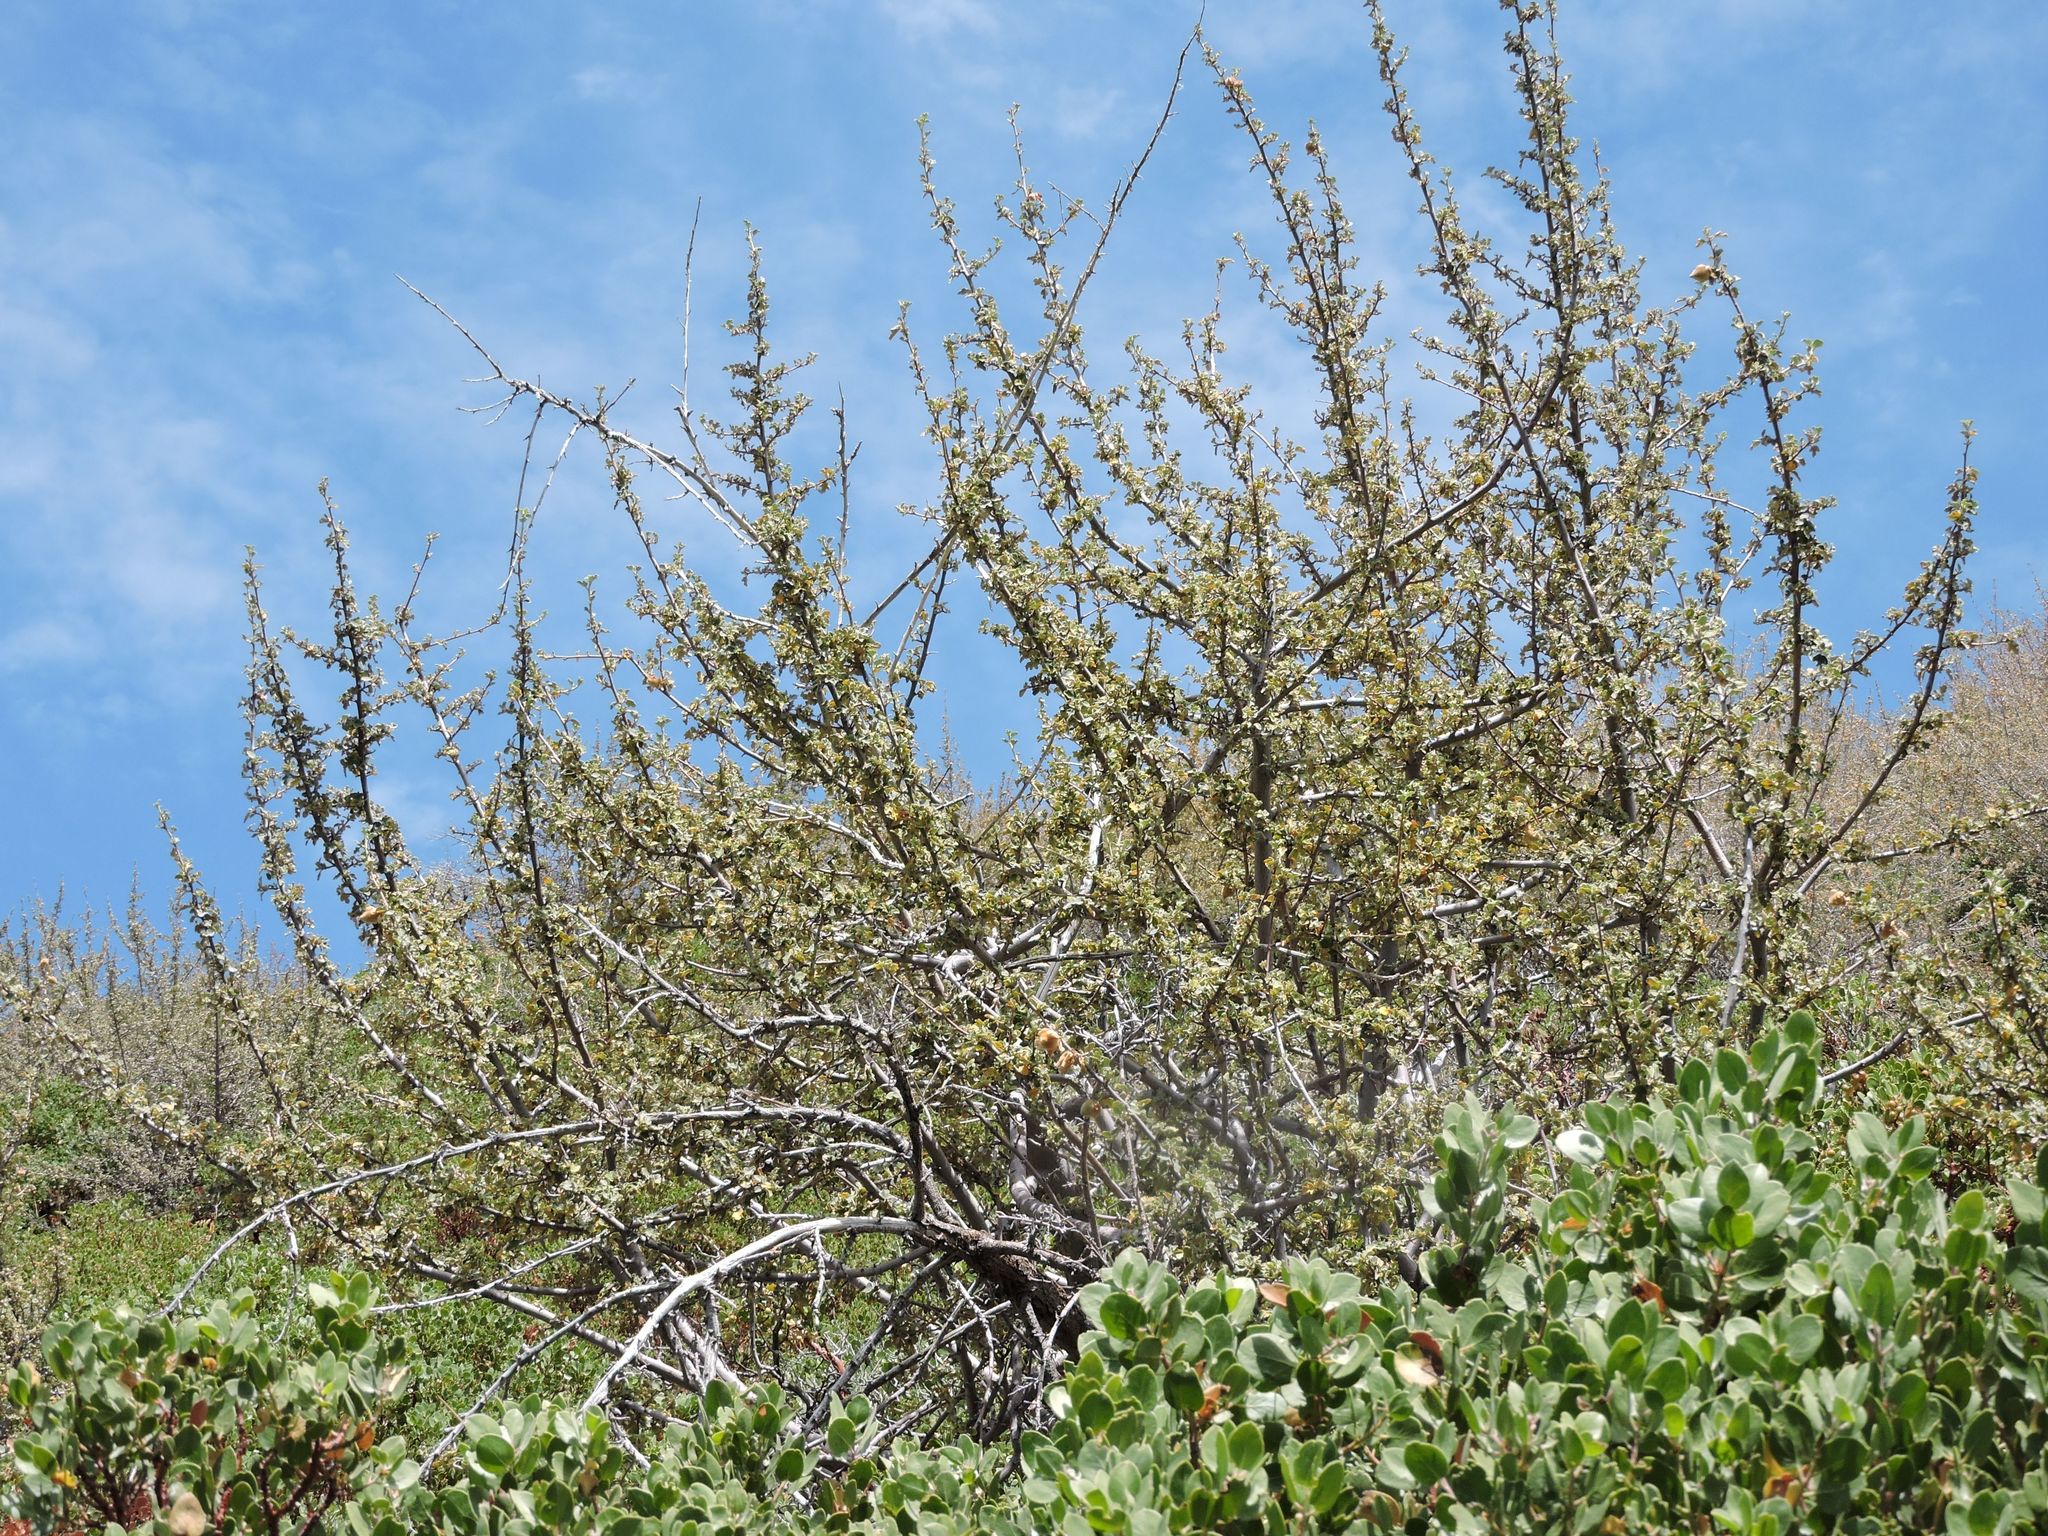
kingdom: Plantae
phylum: Tracheophyta
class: Magnoliopsida
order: Malvales
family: Malvaceae
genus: Fremontodendron
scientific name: Fremontodendron californicum
